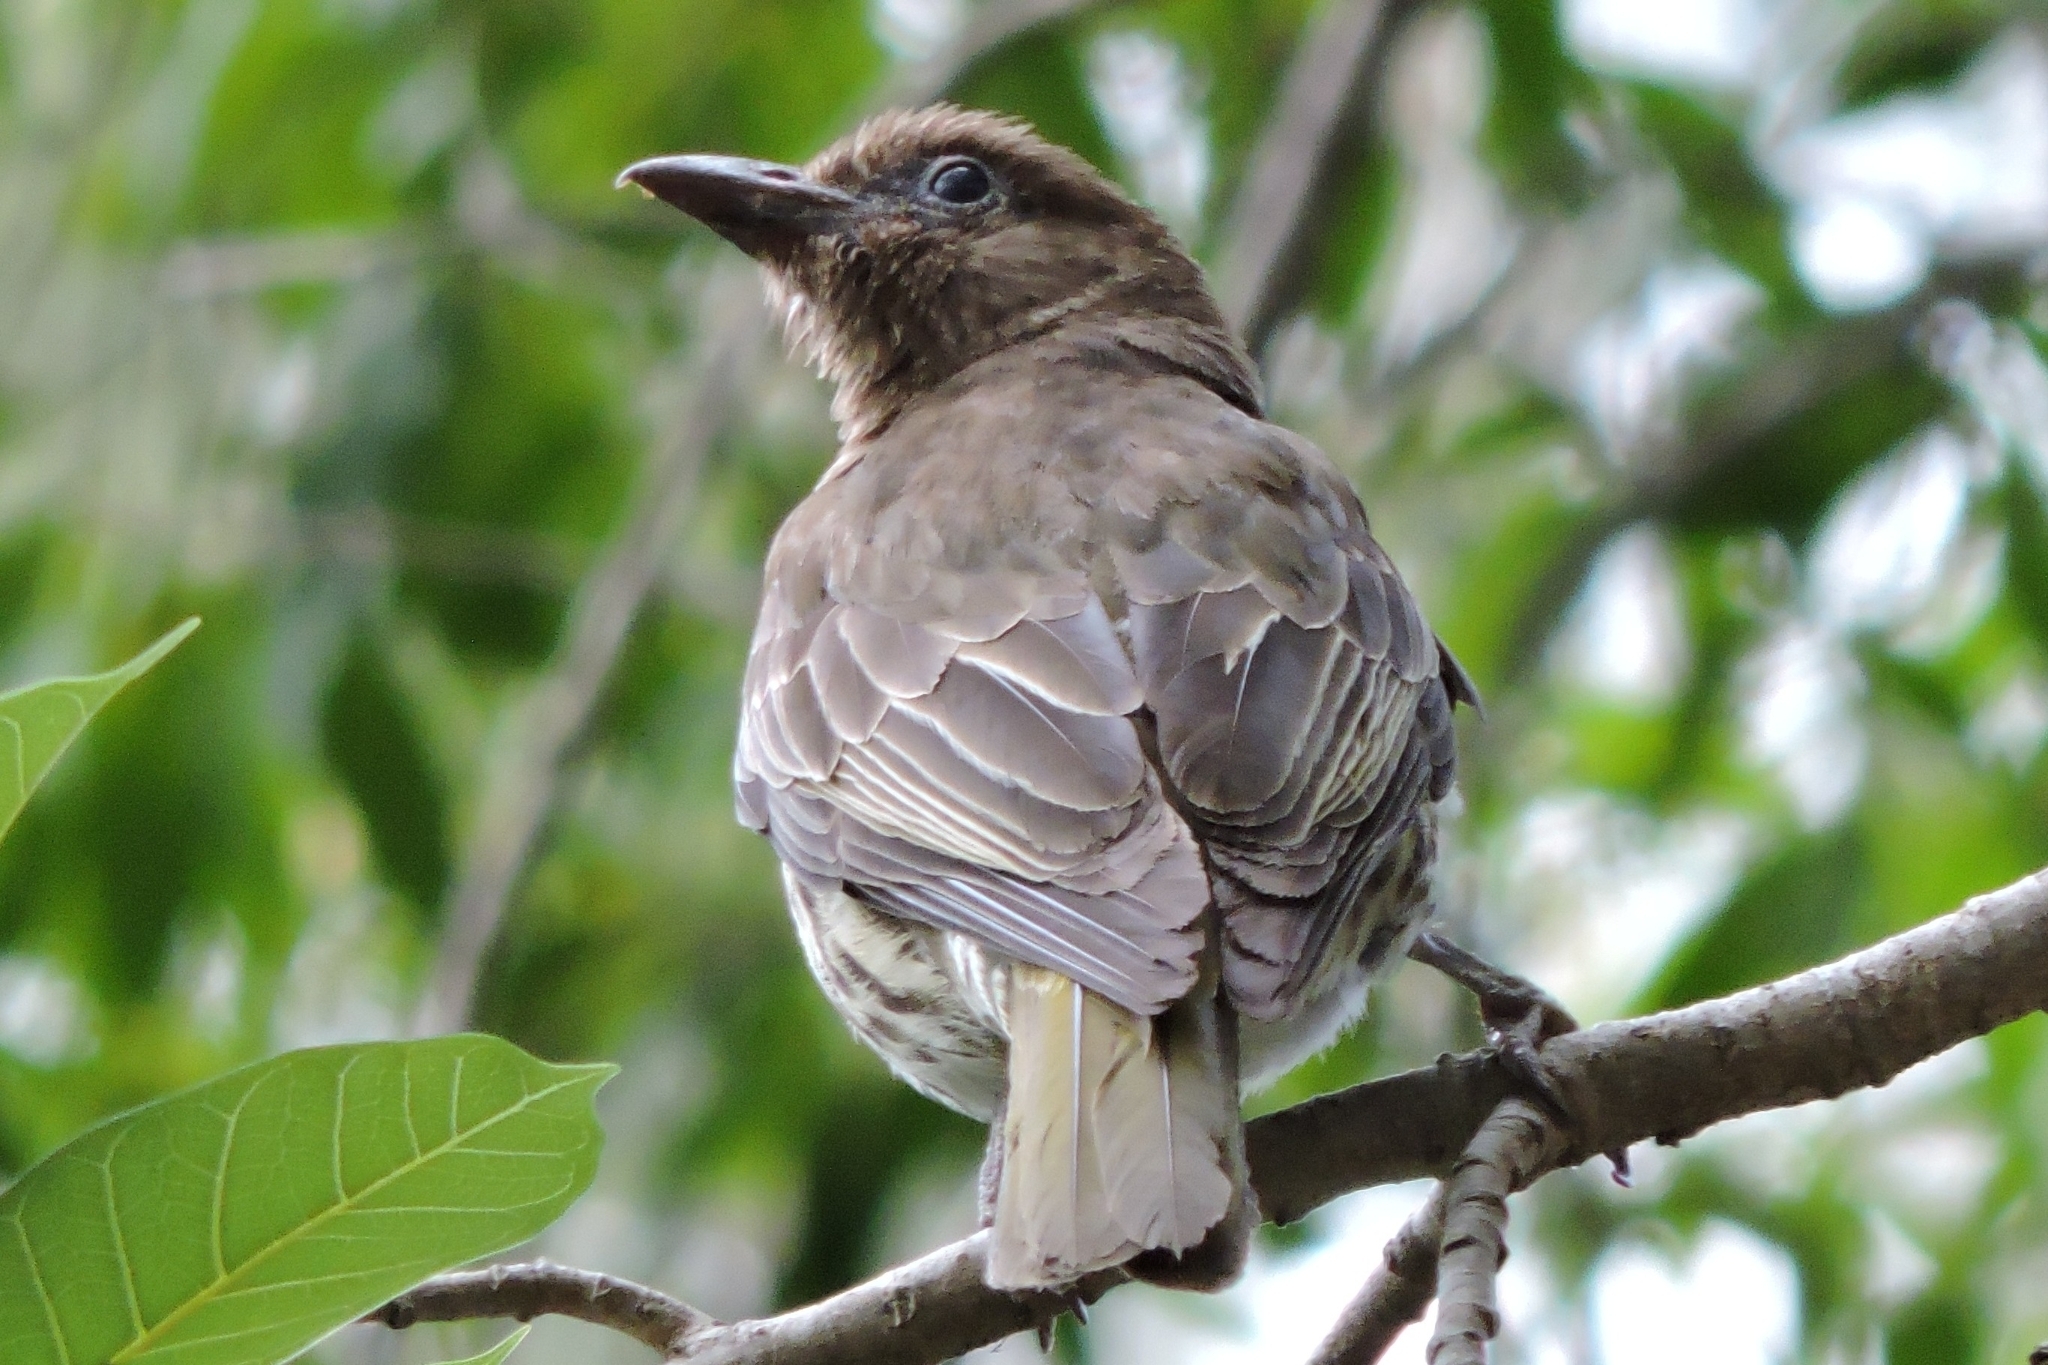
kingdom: Animalia
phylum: Chordata
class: Aves
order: Passeriformes
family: Oriolidae
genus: Sphecotheres
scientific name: Sphecotheres vieilloti
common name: Australasian figbird
